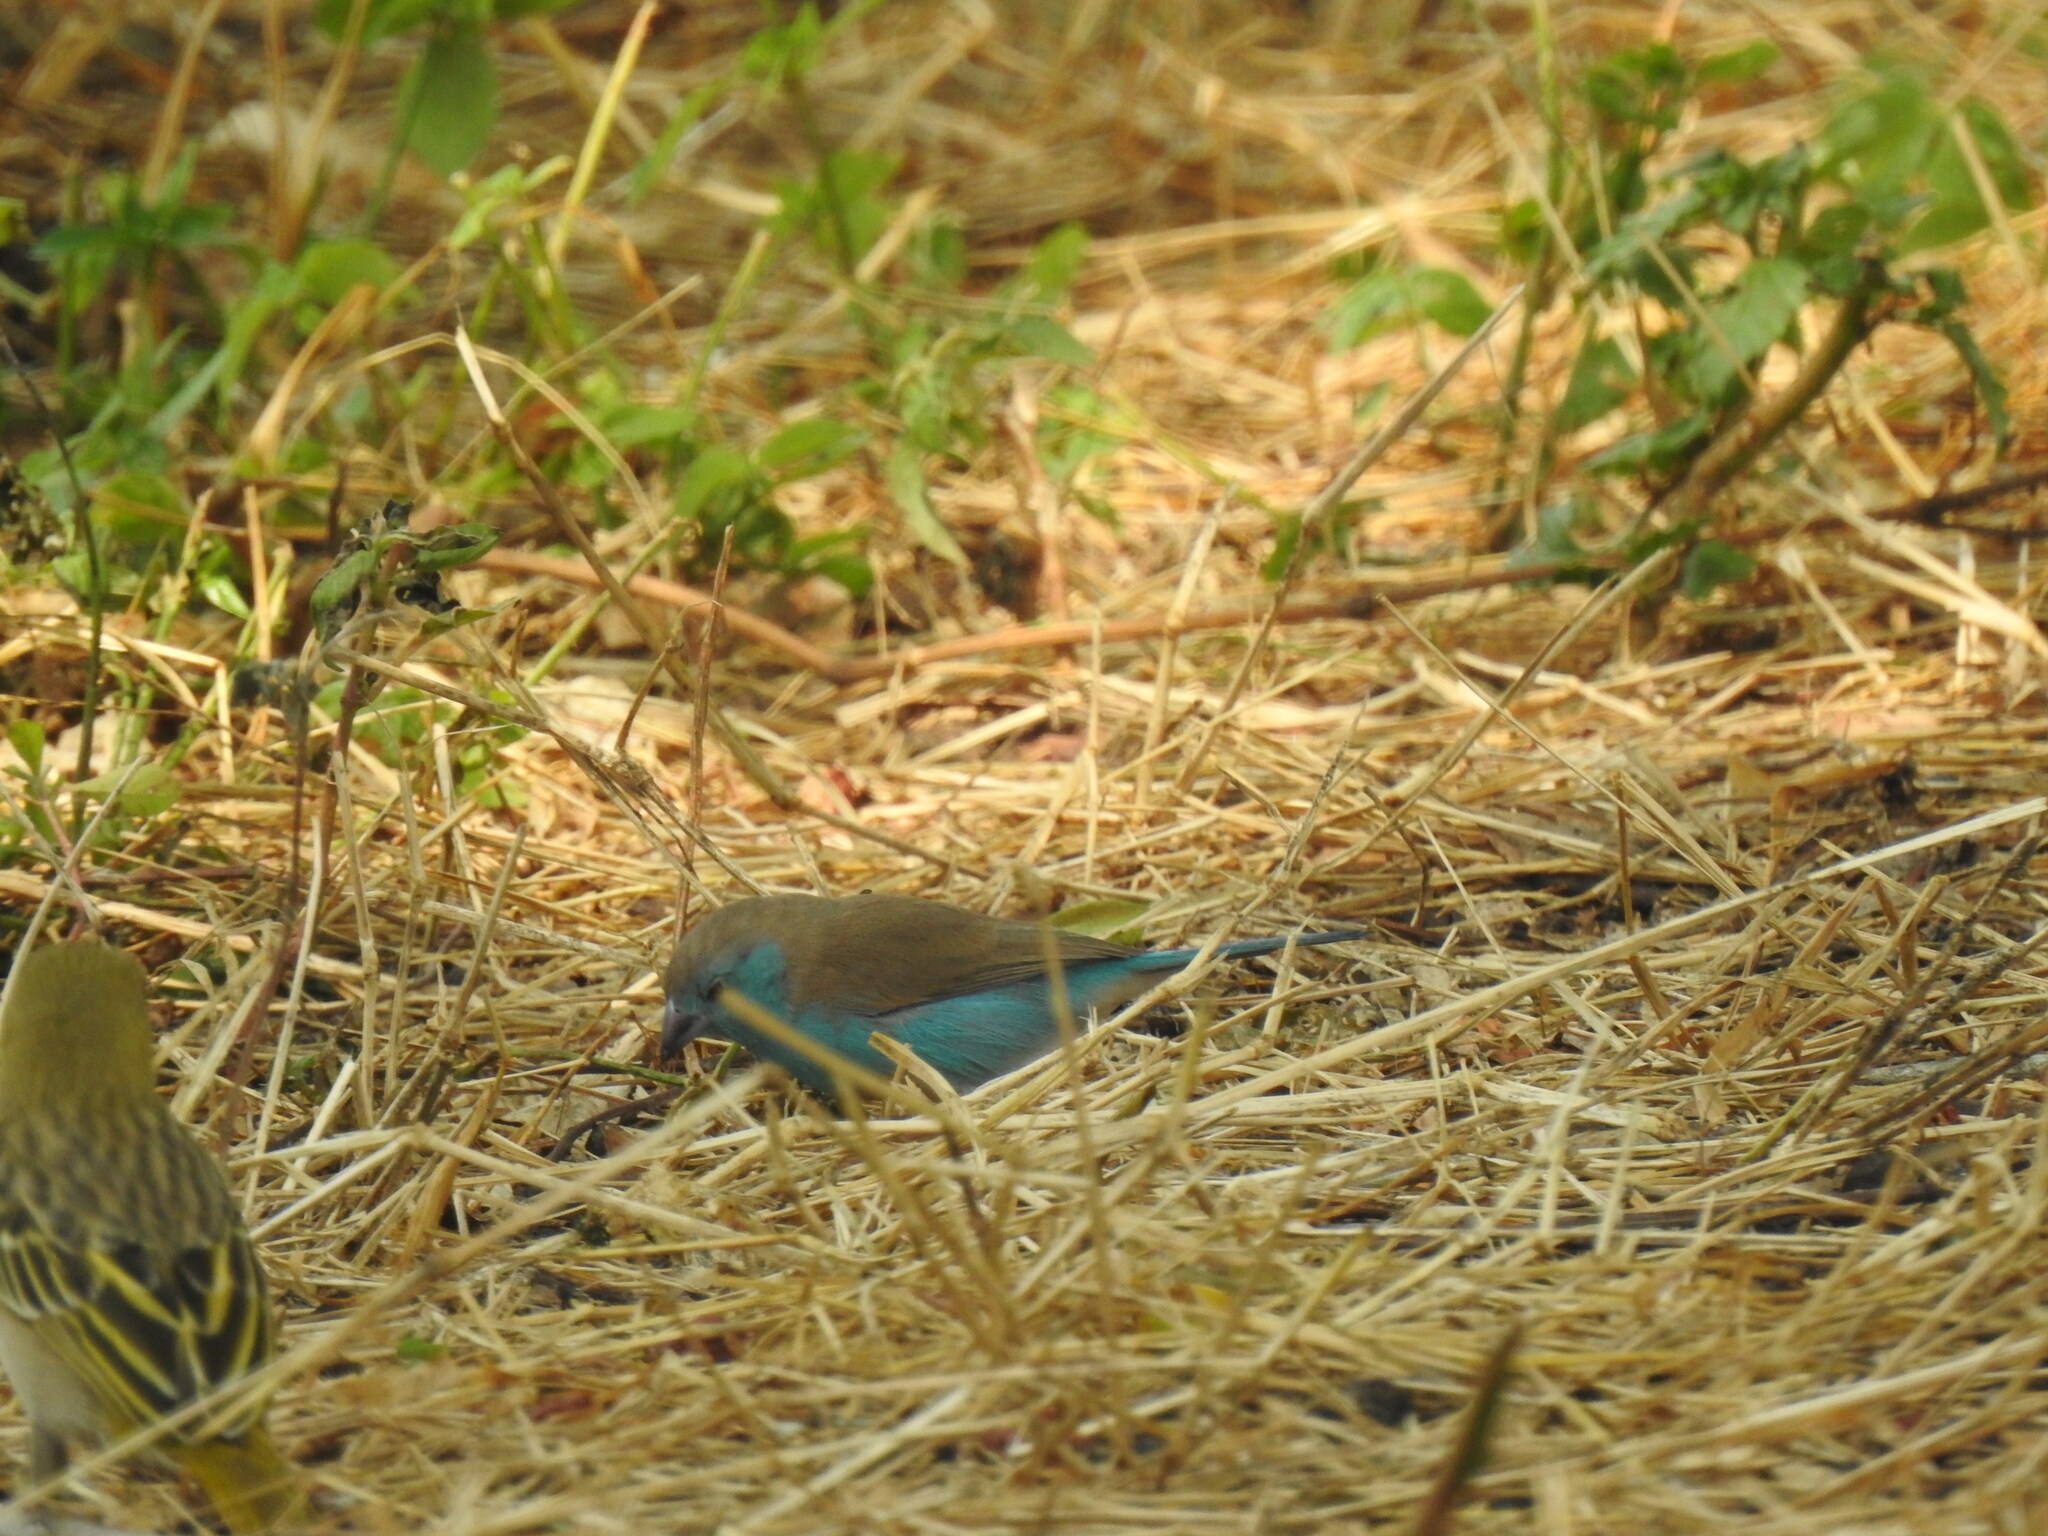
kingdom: Animalia
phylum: Chordata
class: Aves
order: Passeriformes
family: Estrildidae
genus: Uraeginthus
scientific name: Uraeginthus angolensis
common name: Blue waxbill
